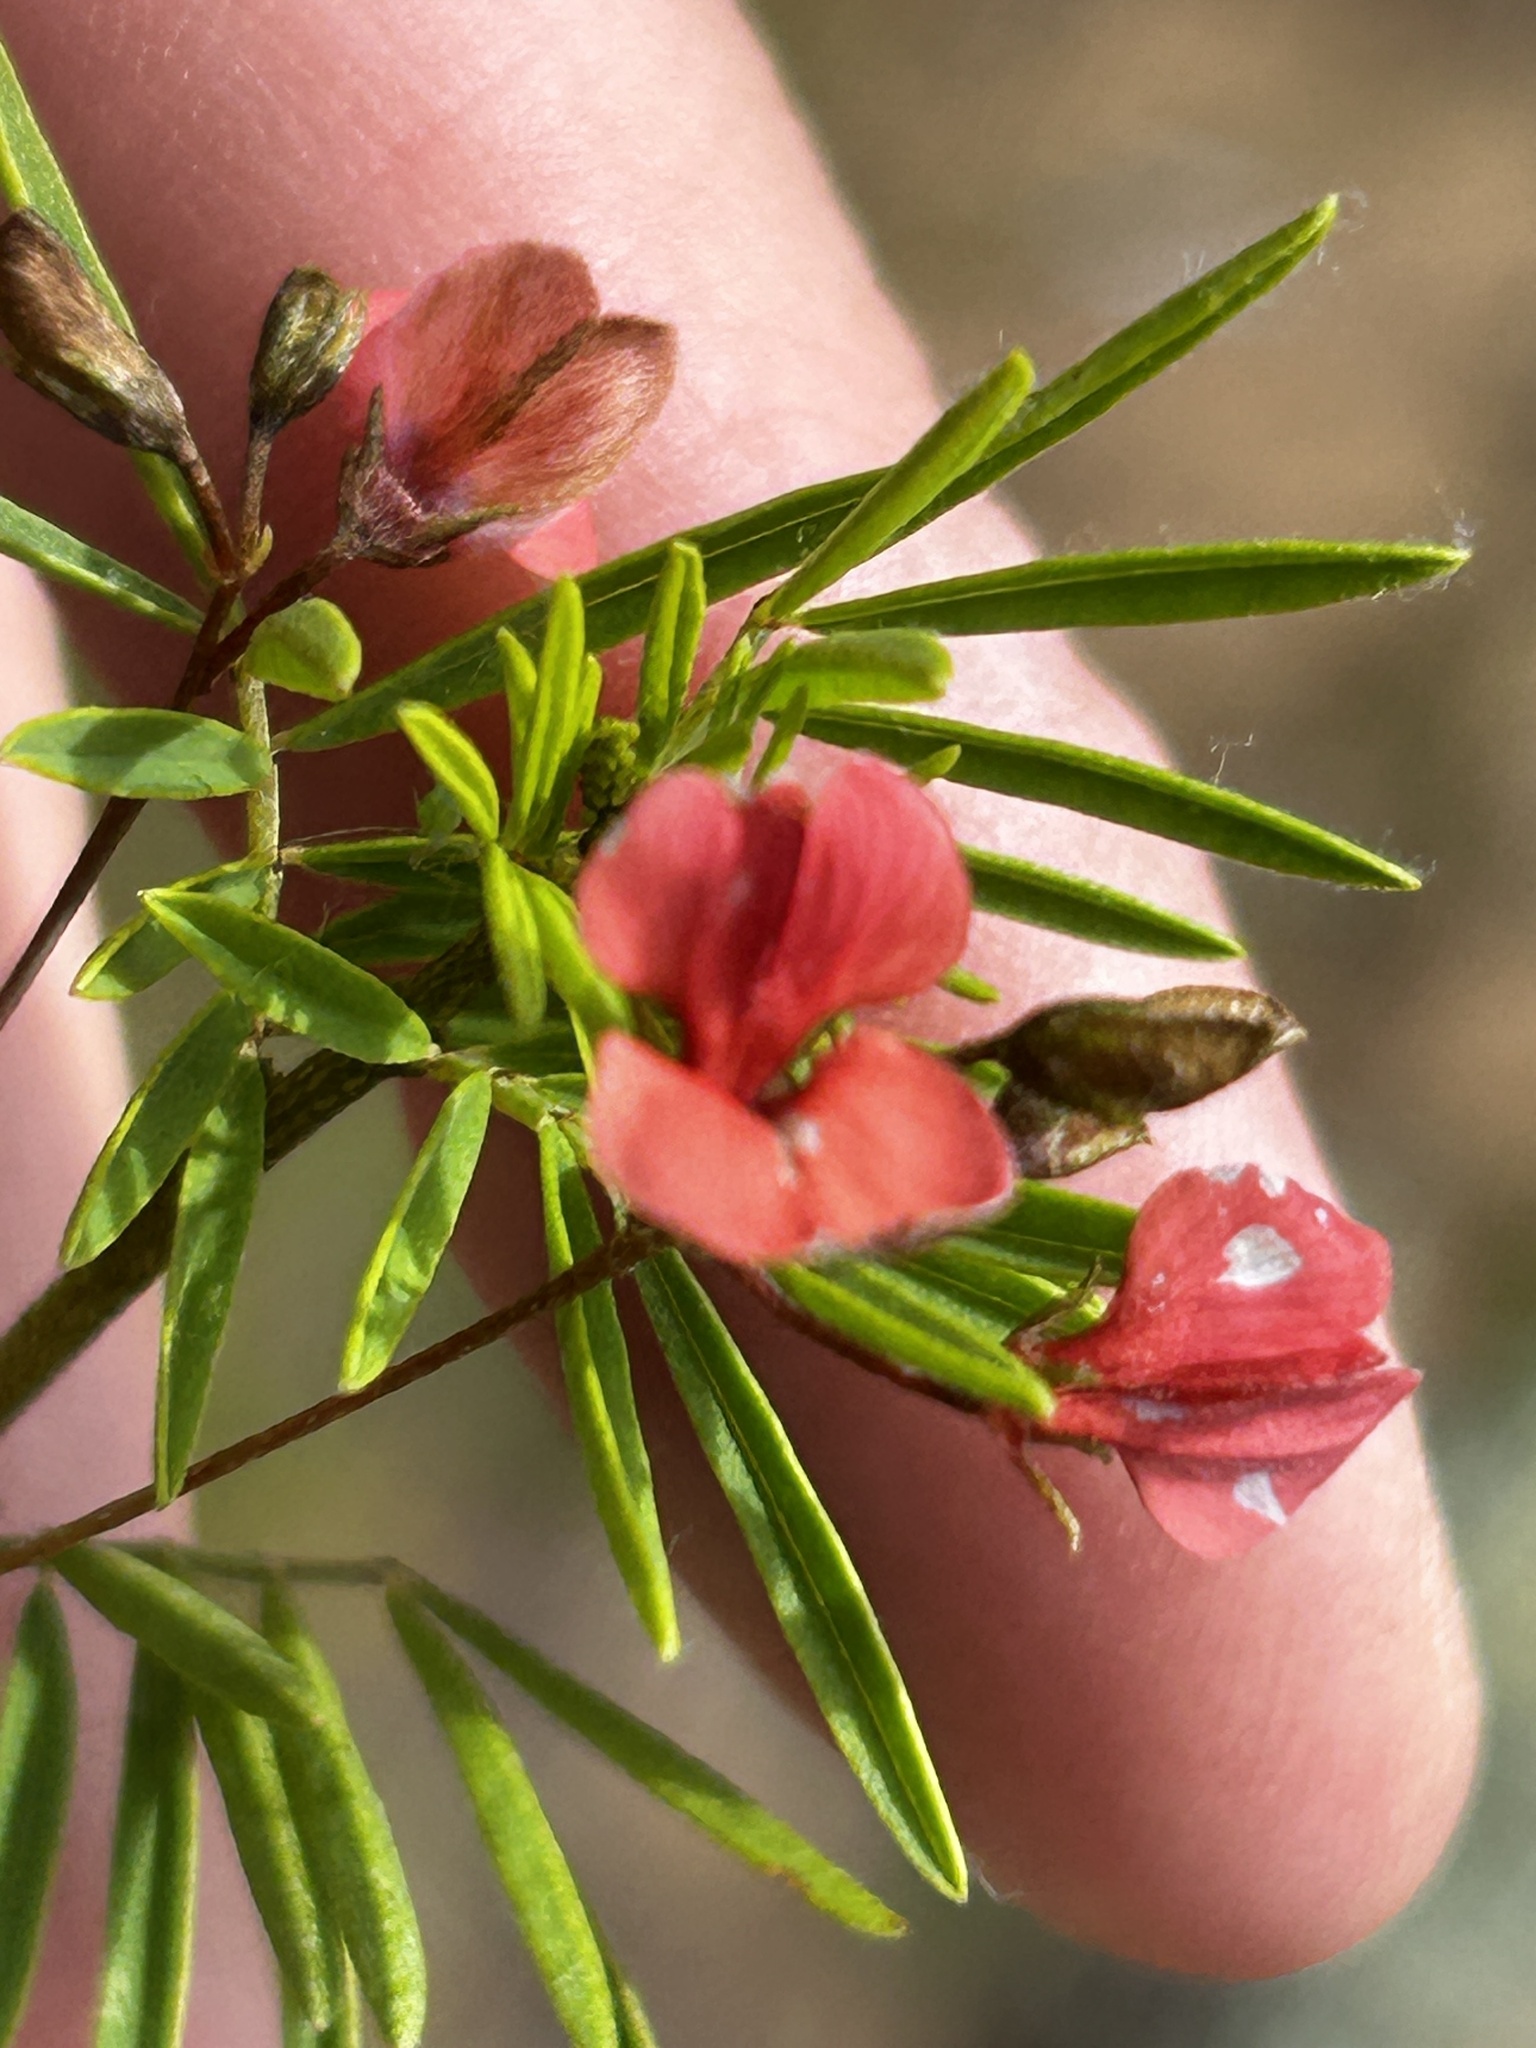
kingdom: Plantae
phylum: Tracheophyta
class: Magnoliopsida
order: Fabales
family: Fabaceae
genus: Indigofera
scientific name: Indigofera verrucosa
